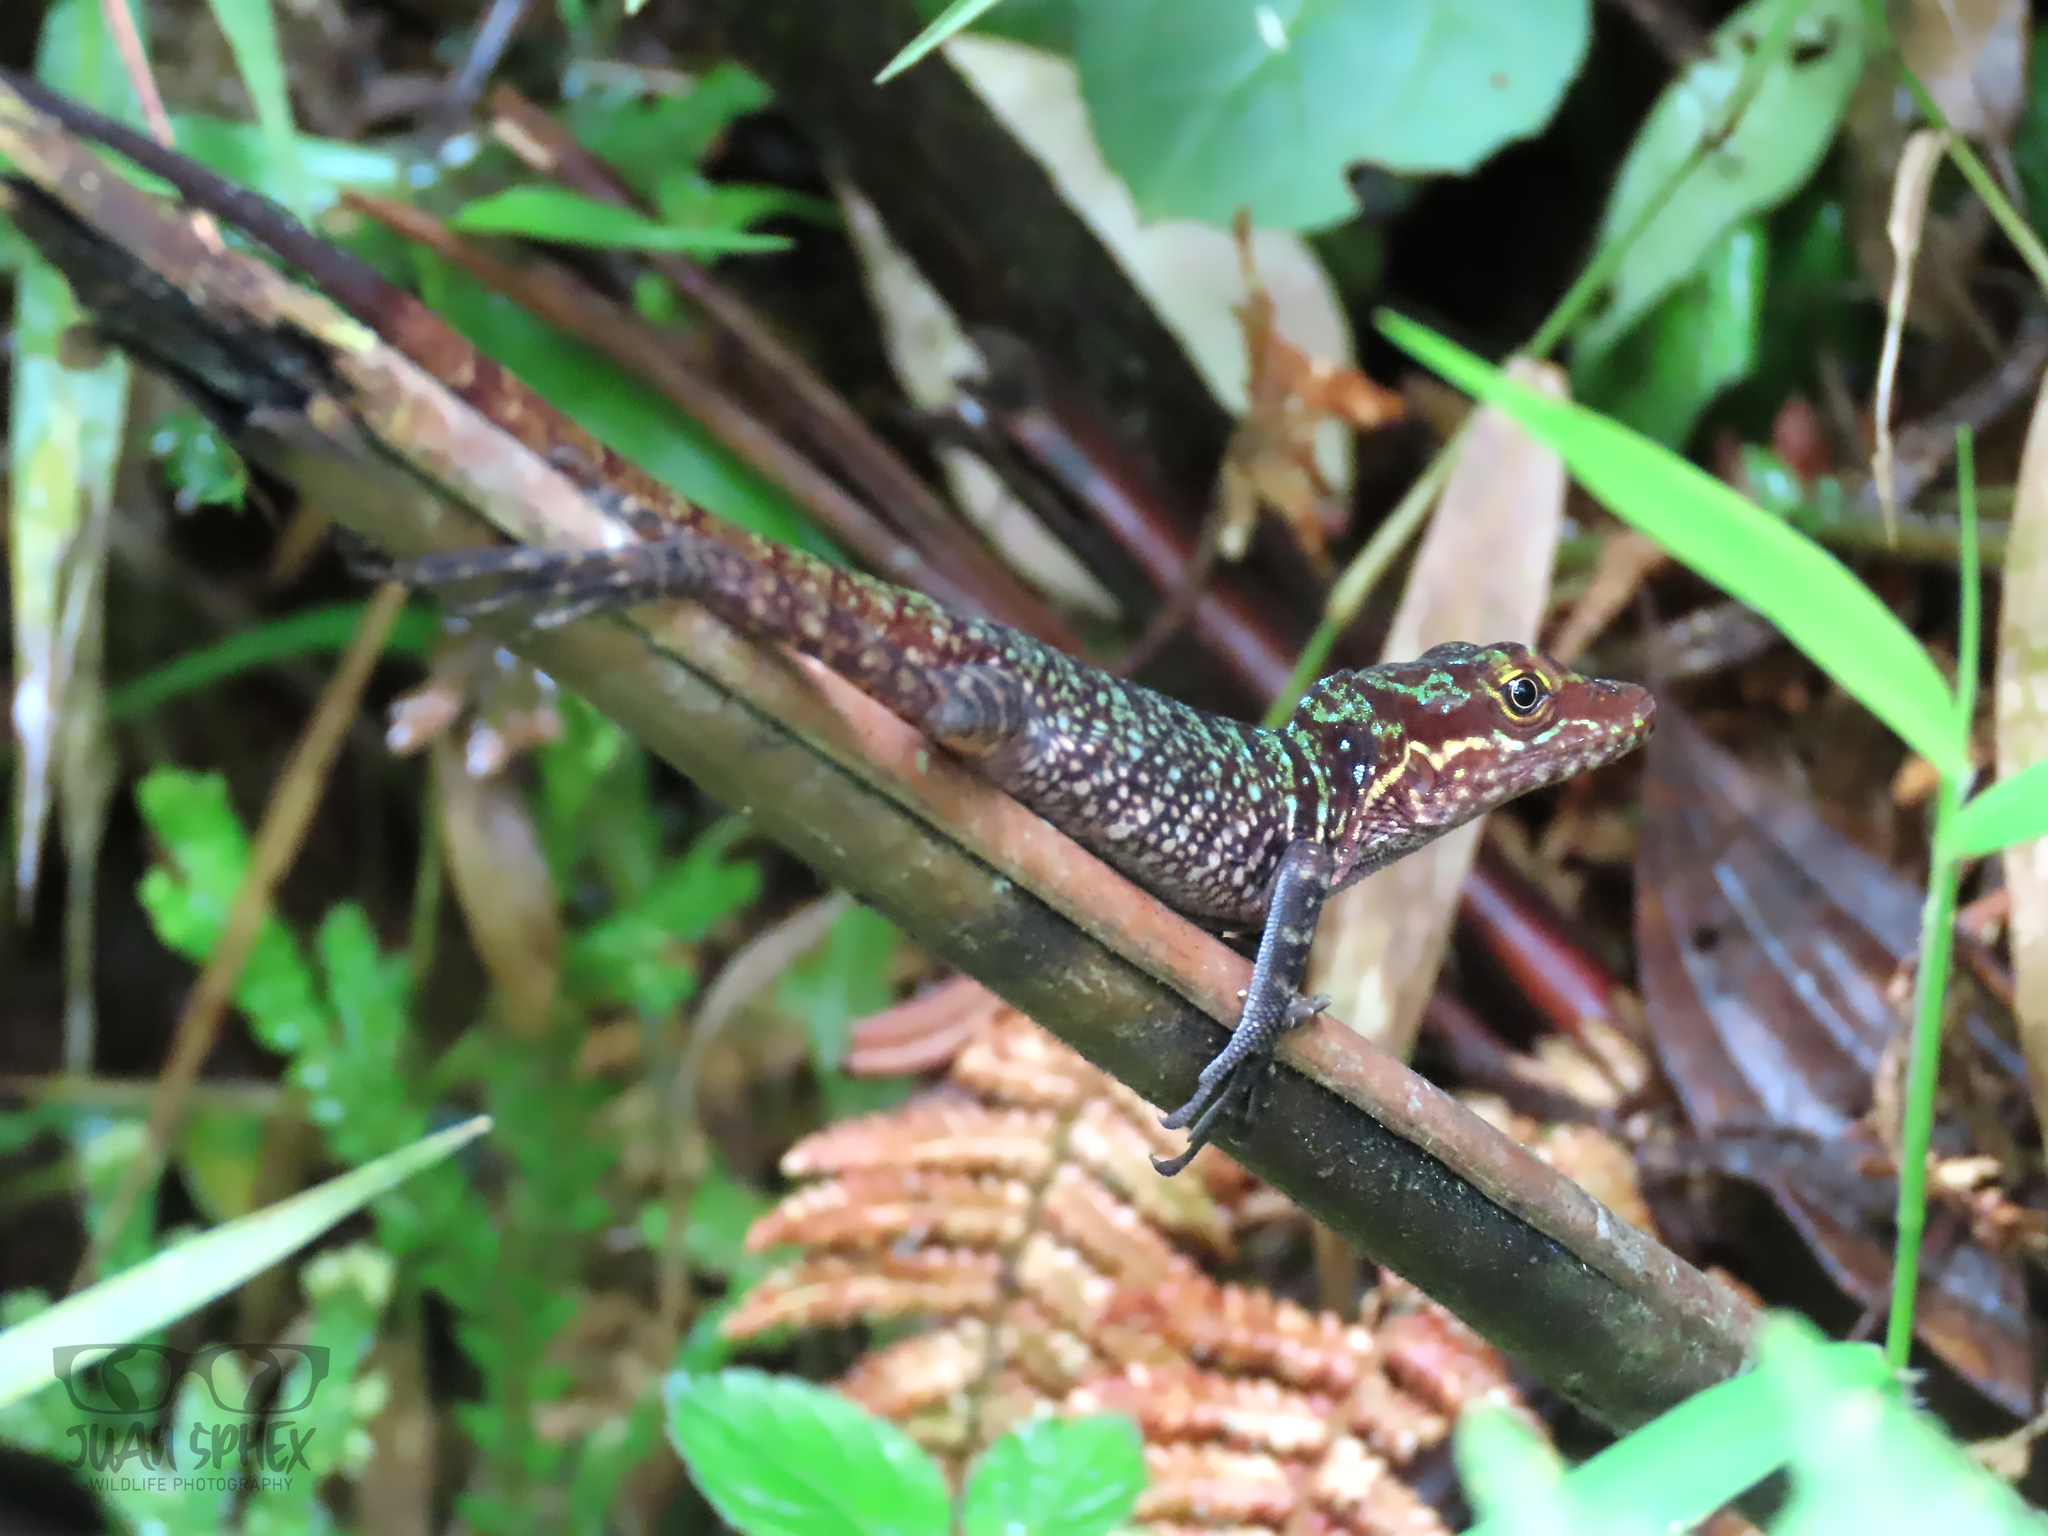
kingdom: Animalia
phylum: Chordata
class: Squamata
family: Dactyloidae
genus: Anolis
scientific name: Anolis ventrimaculatus
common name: Speckled anole
